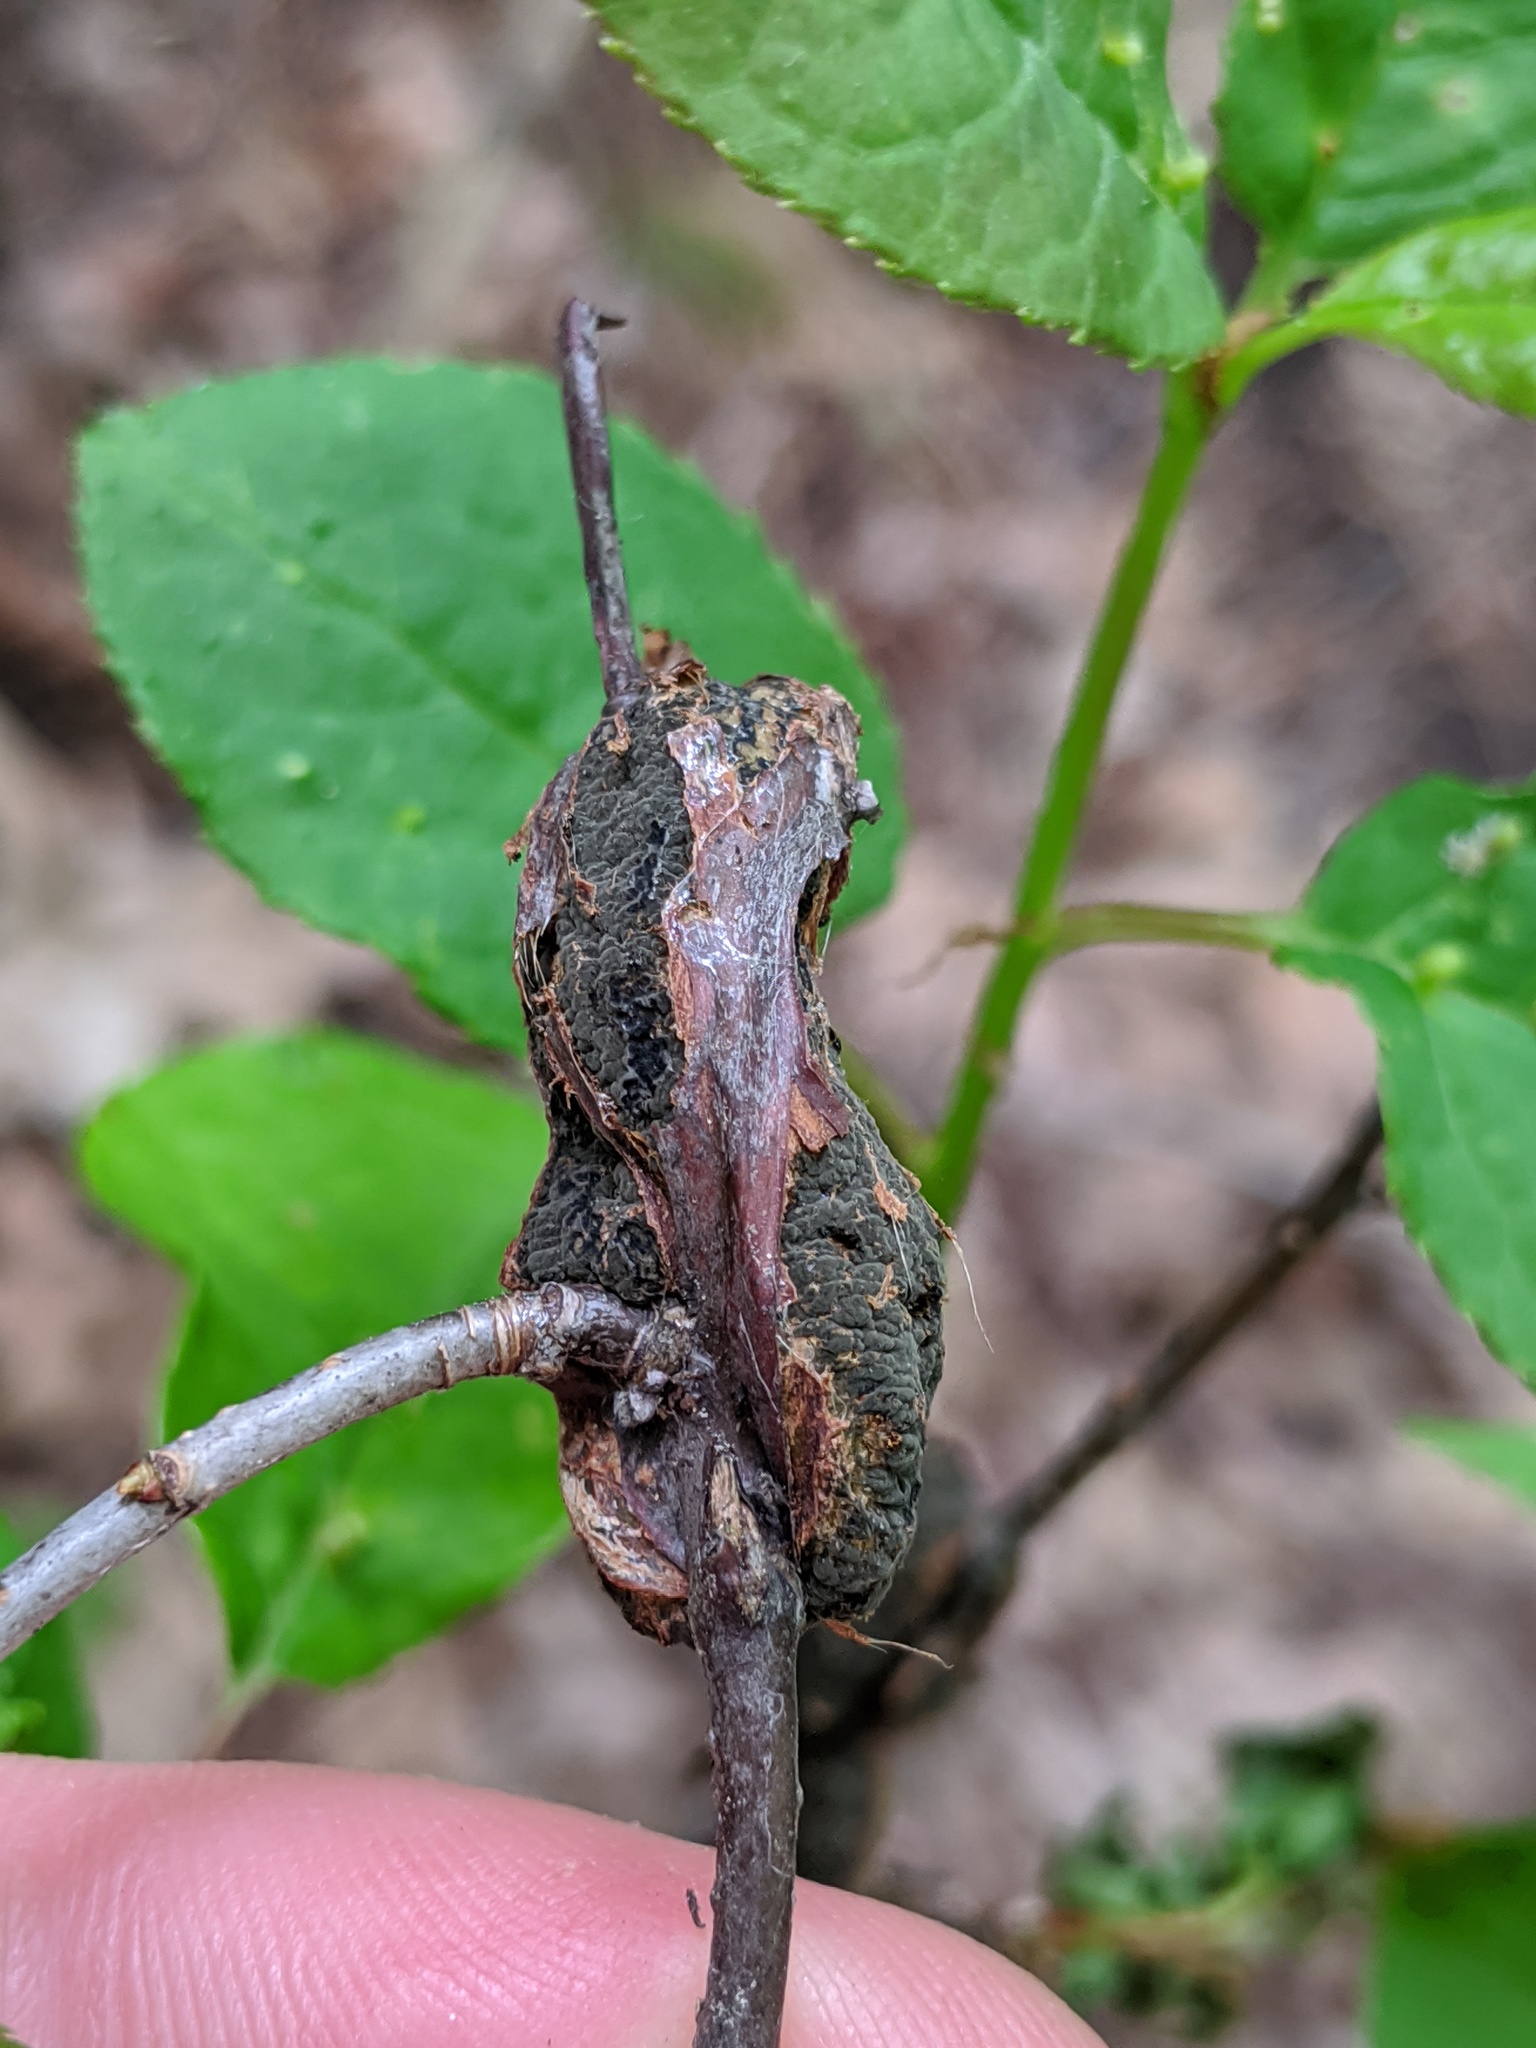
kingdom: Fungi
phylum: Ascomycota
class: Dothideomycetes
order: Venturiales
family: Venturiaceae
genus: Apiosporina
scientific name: Apiosporina morbosa
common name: Black knot
